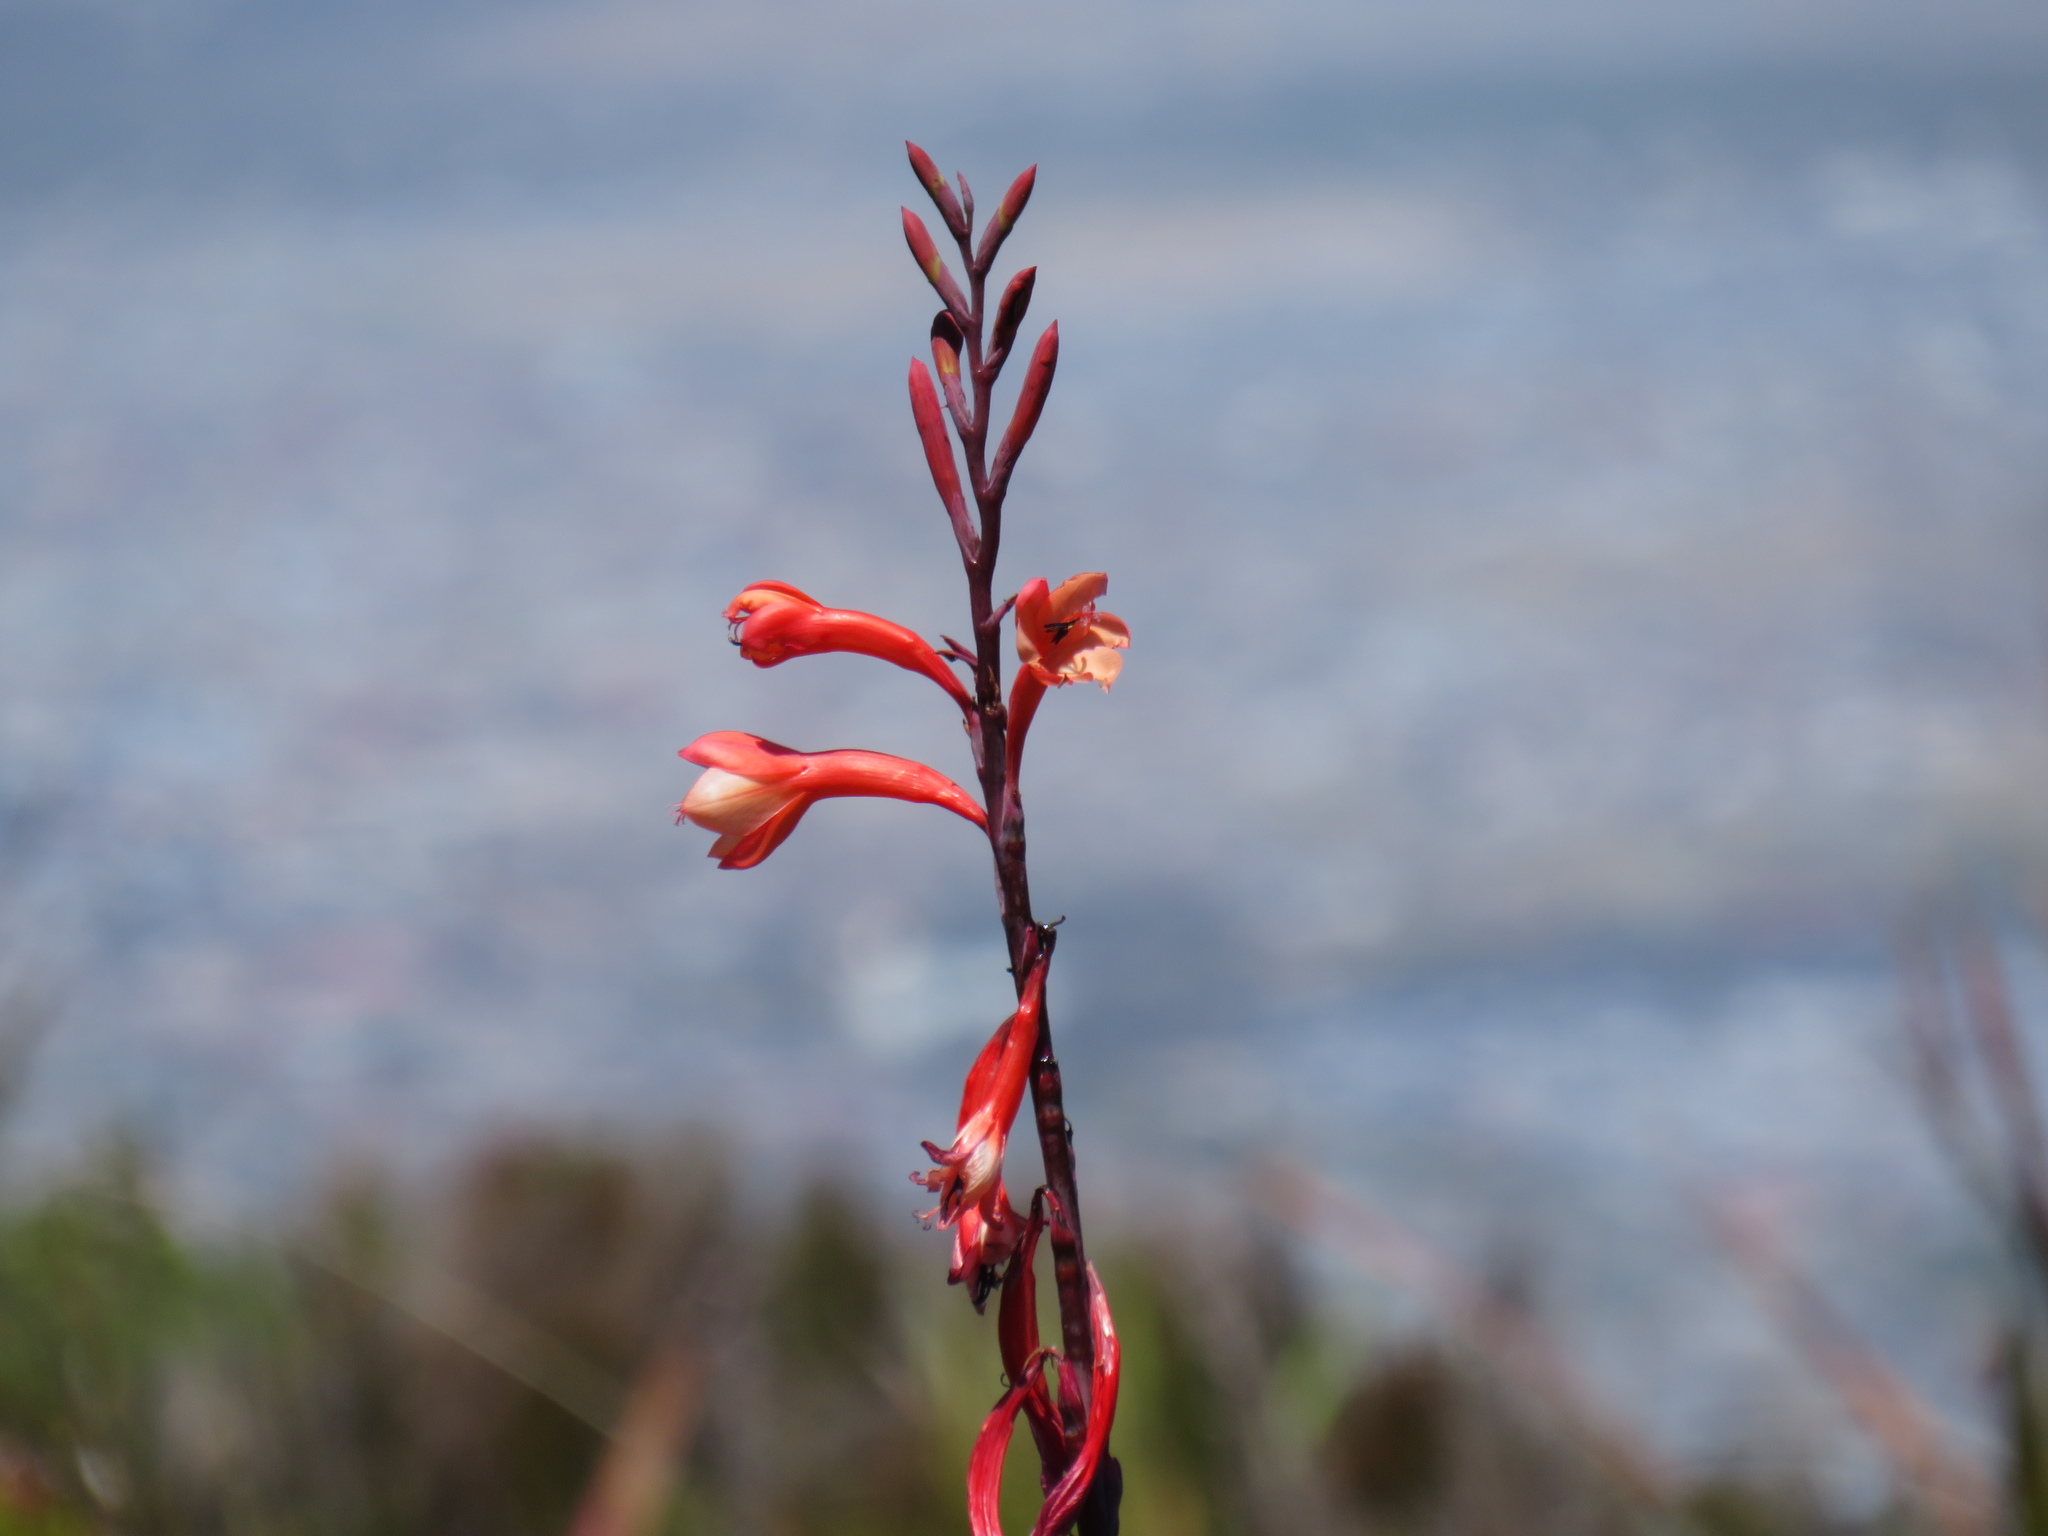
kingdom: Plantae
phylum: Tracheophyta
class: Liliopsida
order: Asparagales
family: Iridaceae
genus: Watsonia
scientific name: Watsonia tabularis
